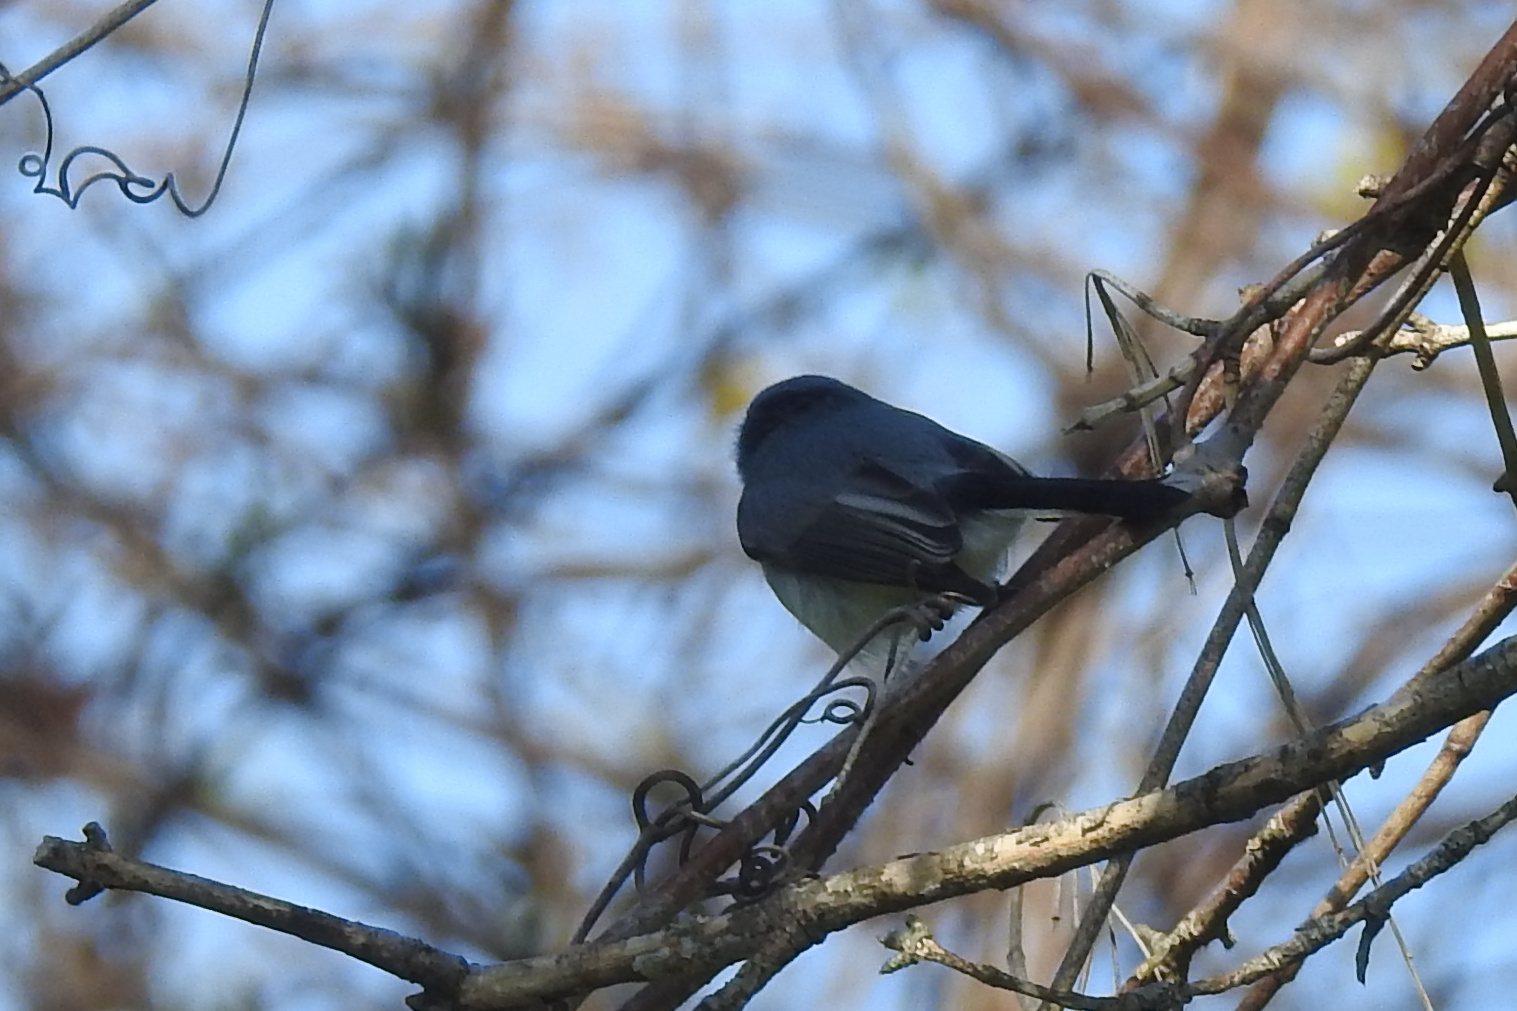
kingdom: Animalia
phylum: Chordata
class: Aves
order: Passeriformes
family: Polioptilidae
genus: Polioptila
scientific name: Polioptila caerulea
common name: Blue-gray gnatcatcher
